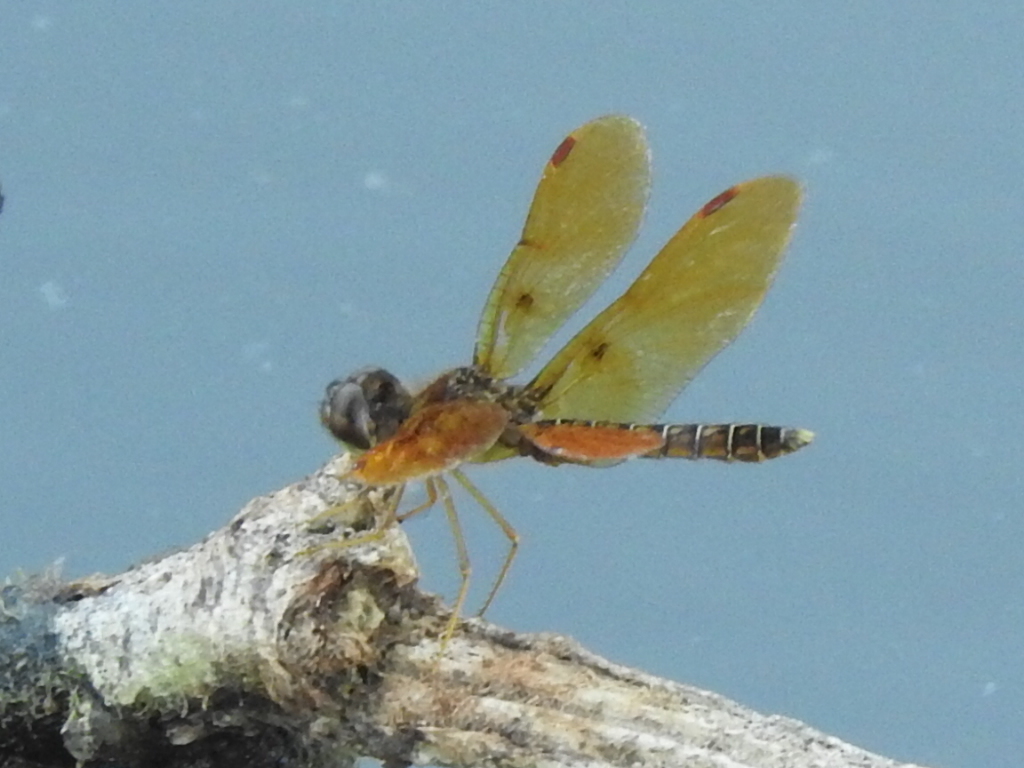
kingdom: Animalia
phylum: Arthropoda
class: Insecta
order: Odonata
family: Libellulidae
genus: Perithemis
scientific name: Perithemis tenera
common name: Eastern amberwing
